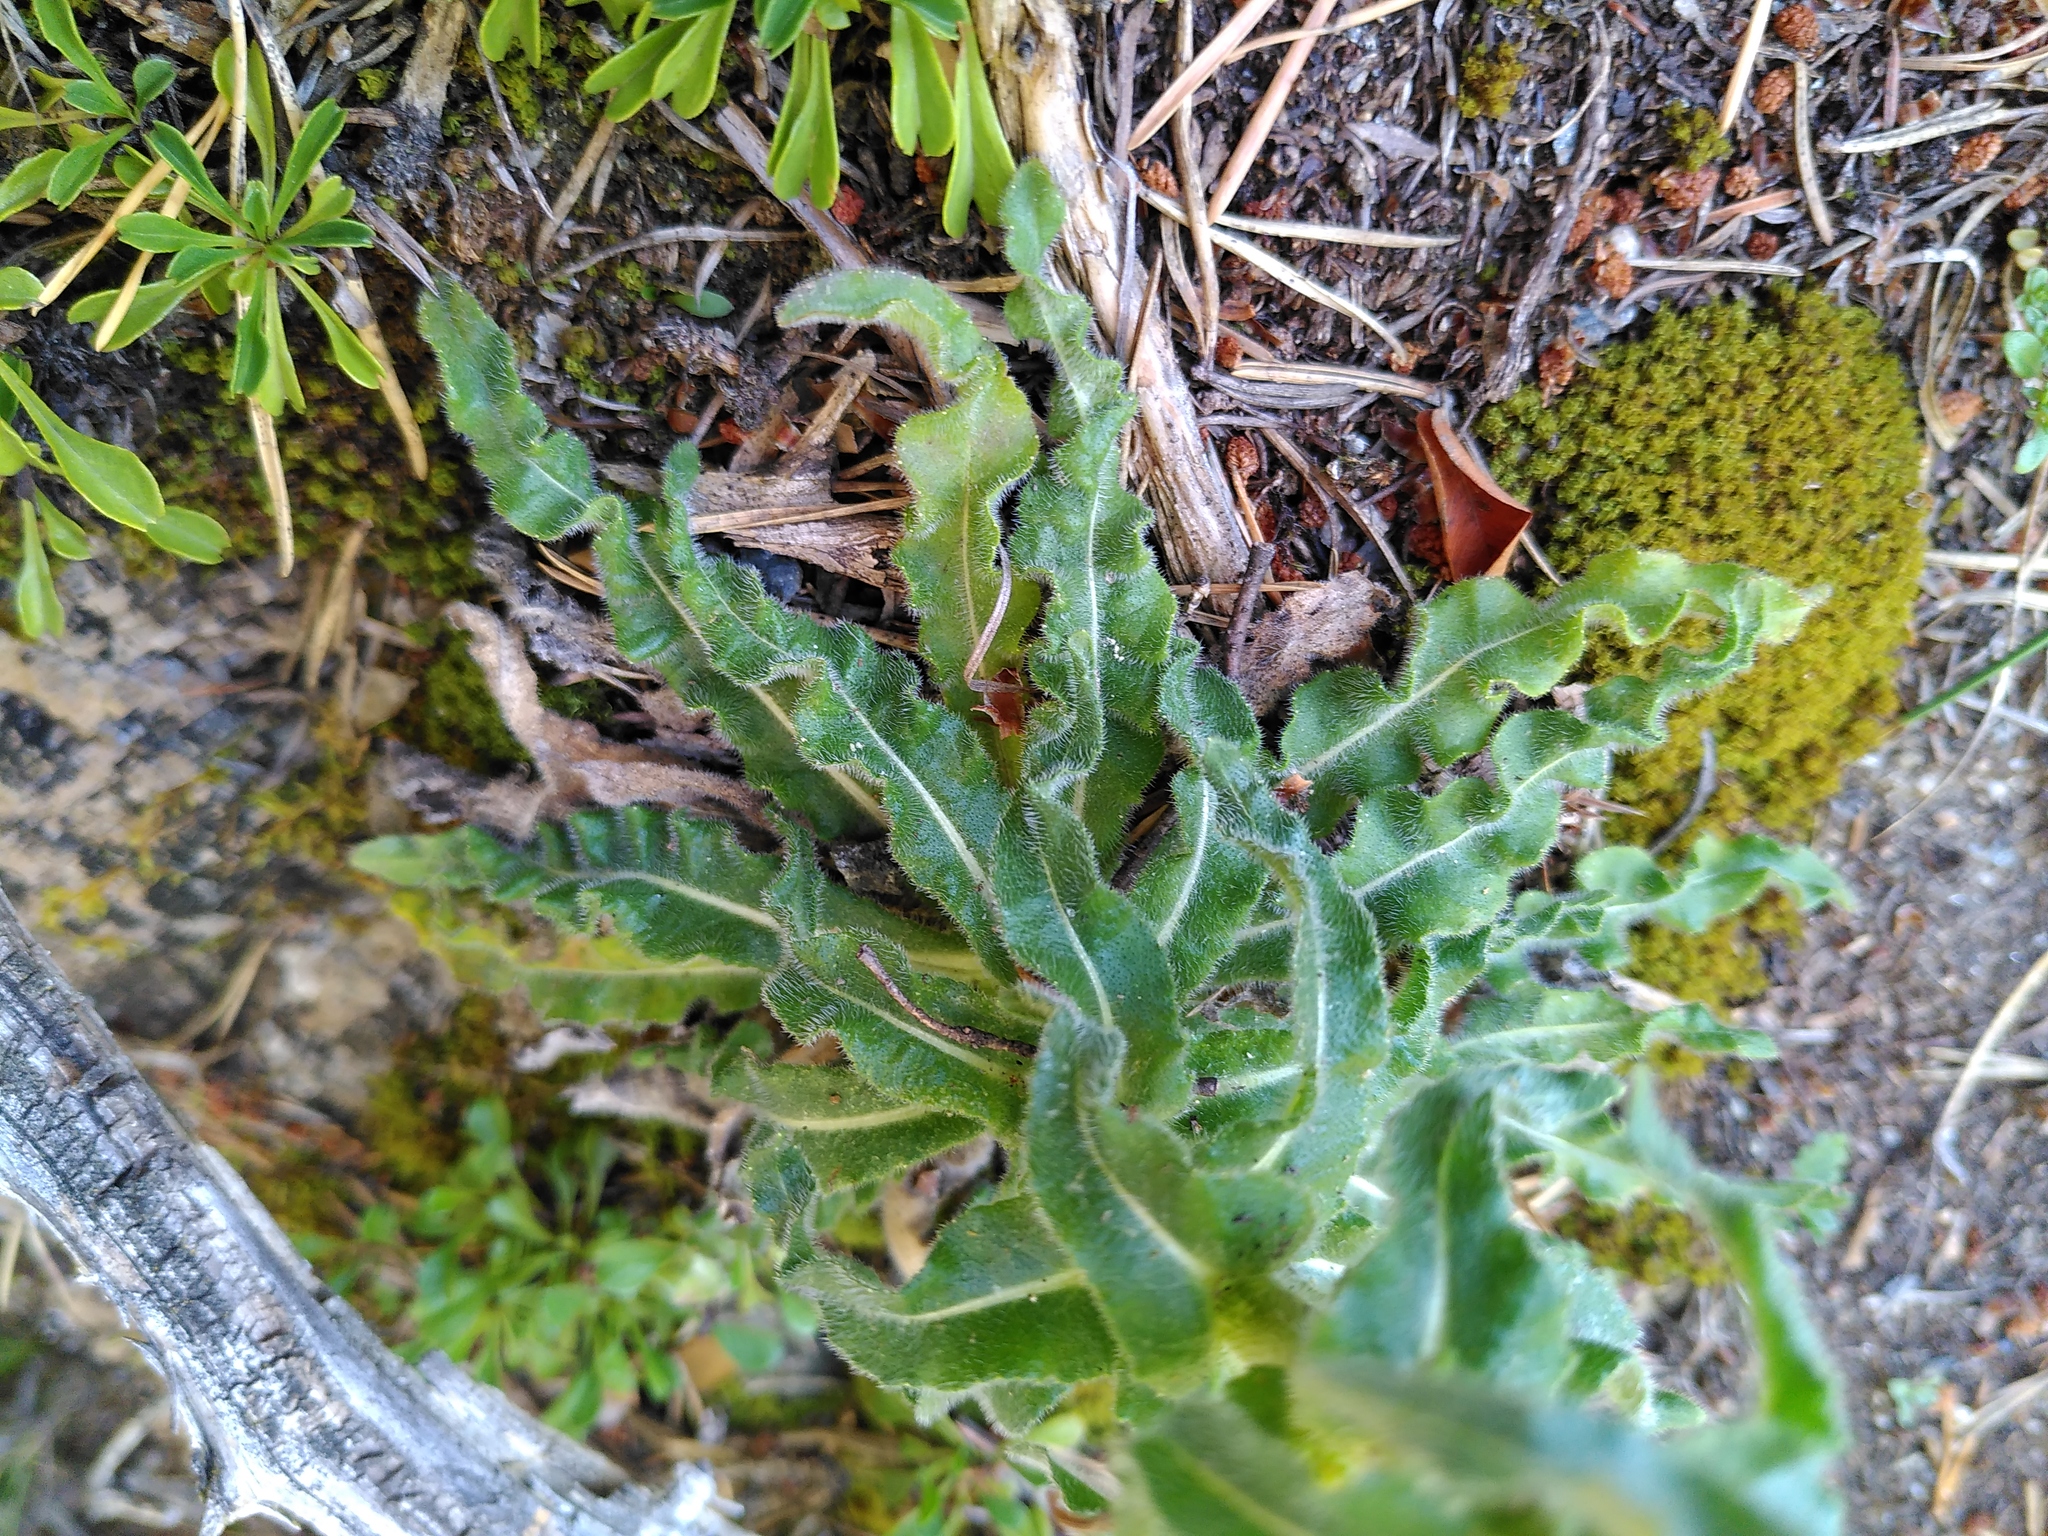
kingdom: Plantae
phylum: Tracheophyta
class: Magnoliopsida
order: Asterales
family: Campanulaceae
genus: Campanula
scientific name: Campanula spicata
